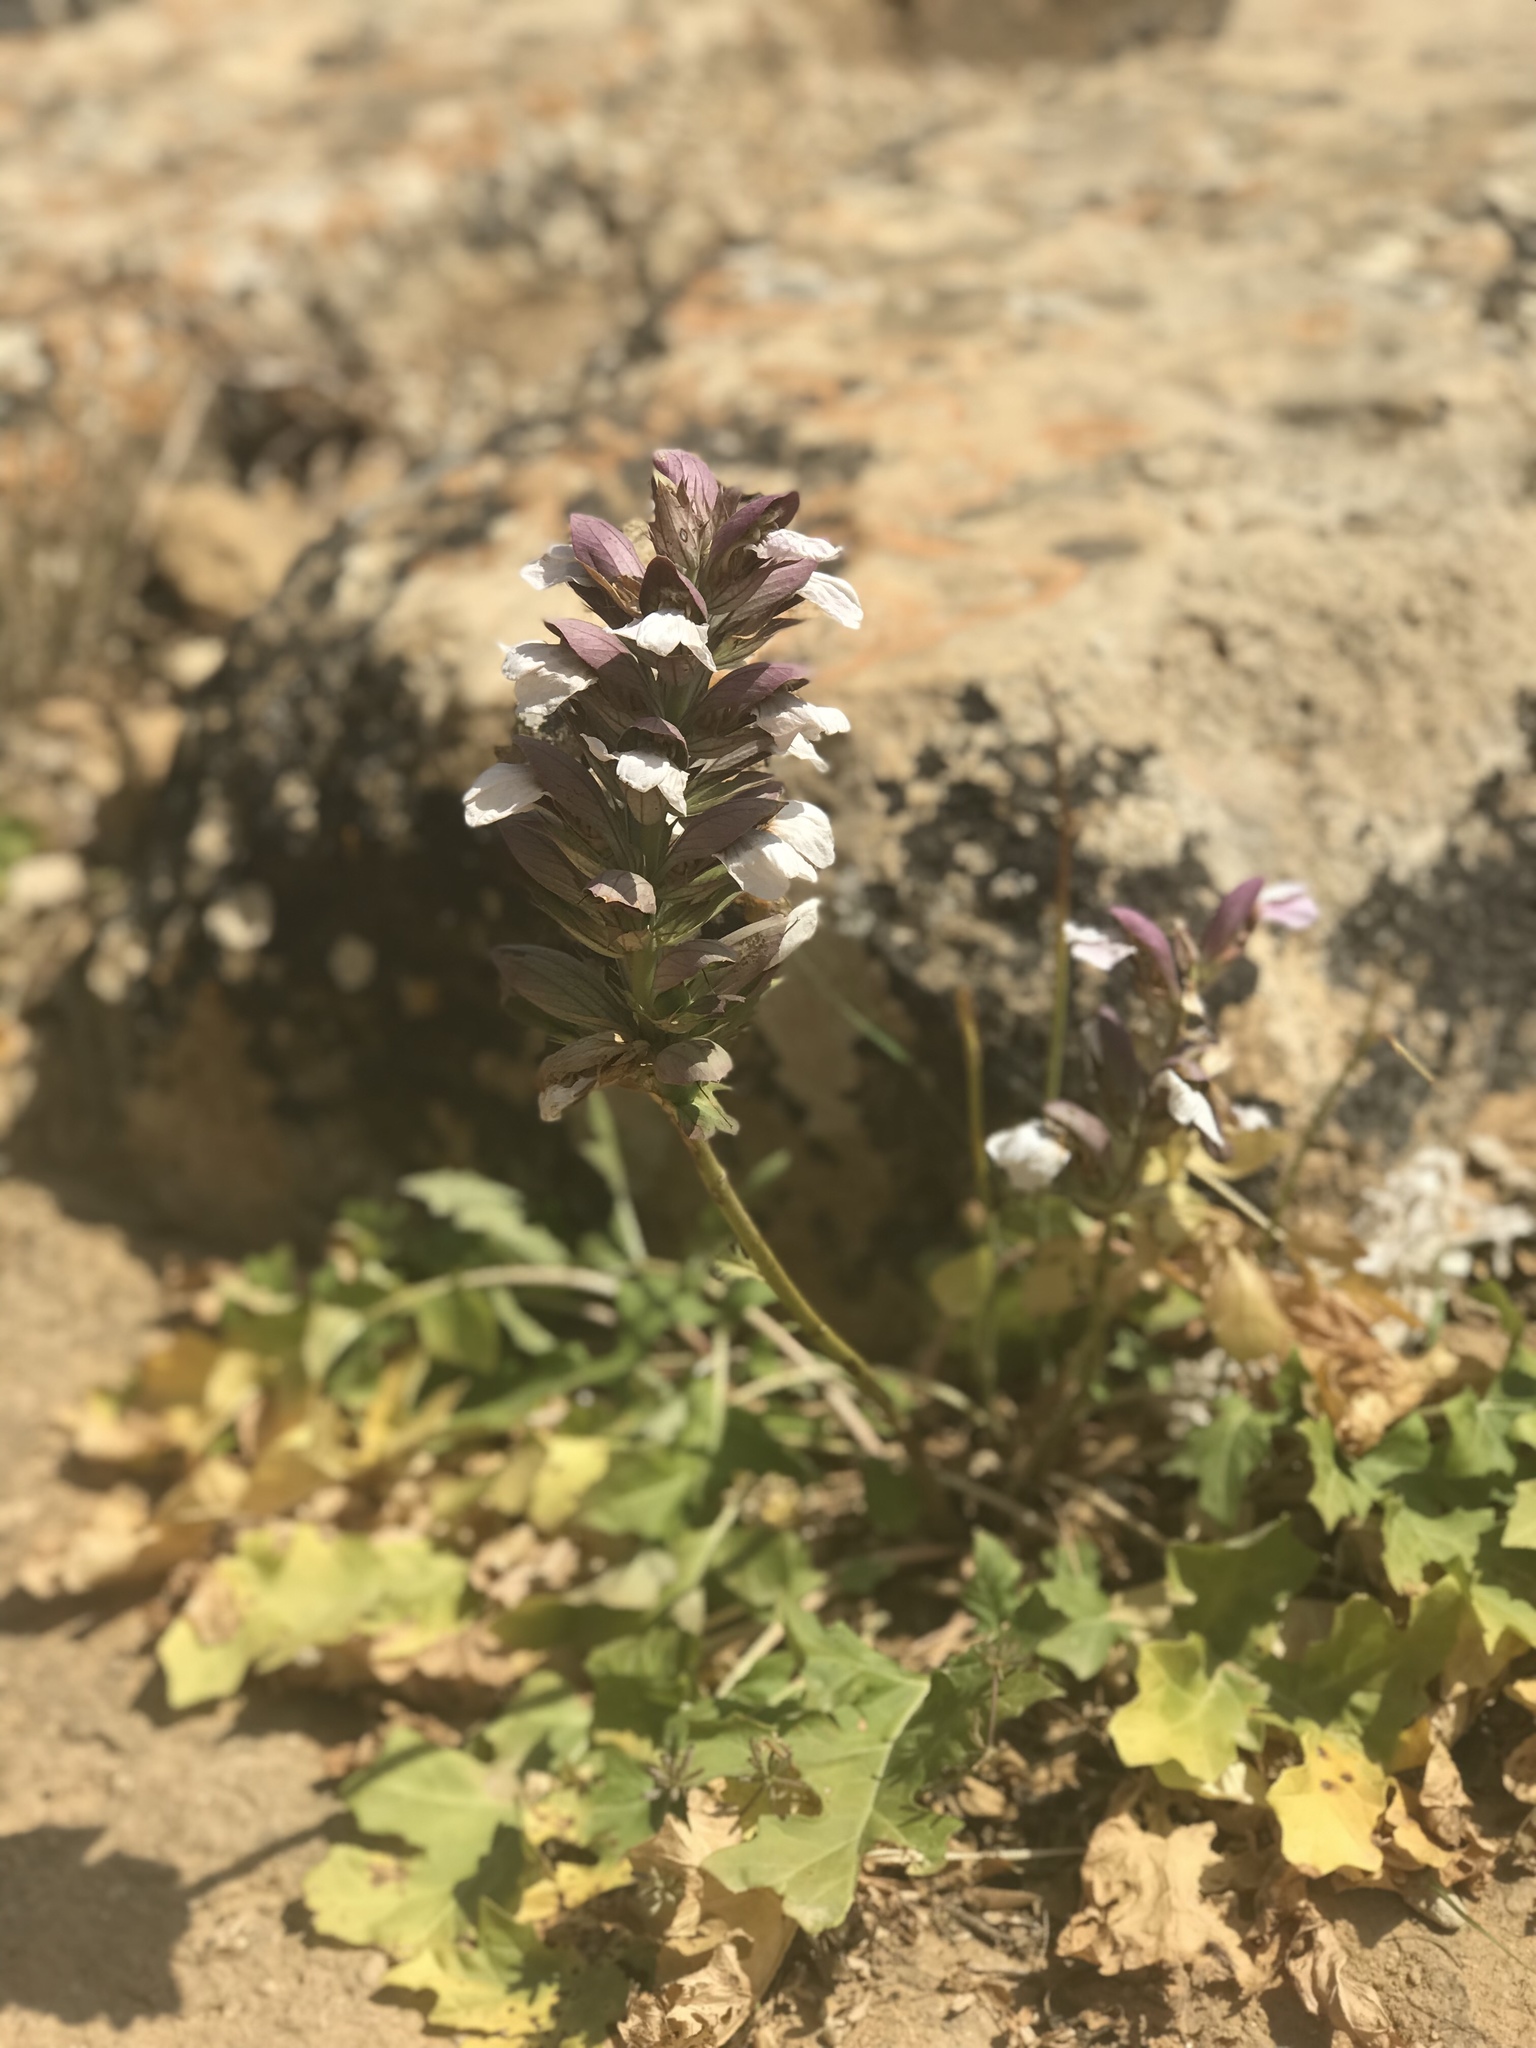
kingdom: Plantae
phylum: Tracheophyta
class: Magnoliopsida
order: Lamiales
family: Acanthaceae
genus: Acanthus
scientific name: Acanthus mollis
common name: Bear's-breech
